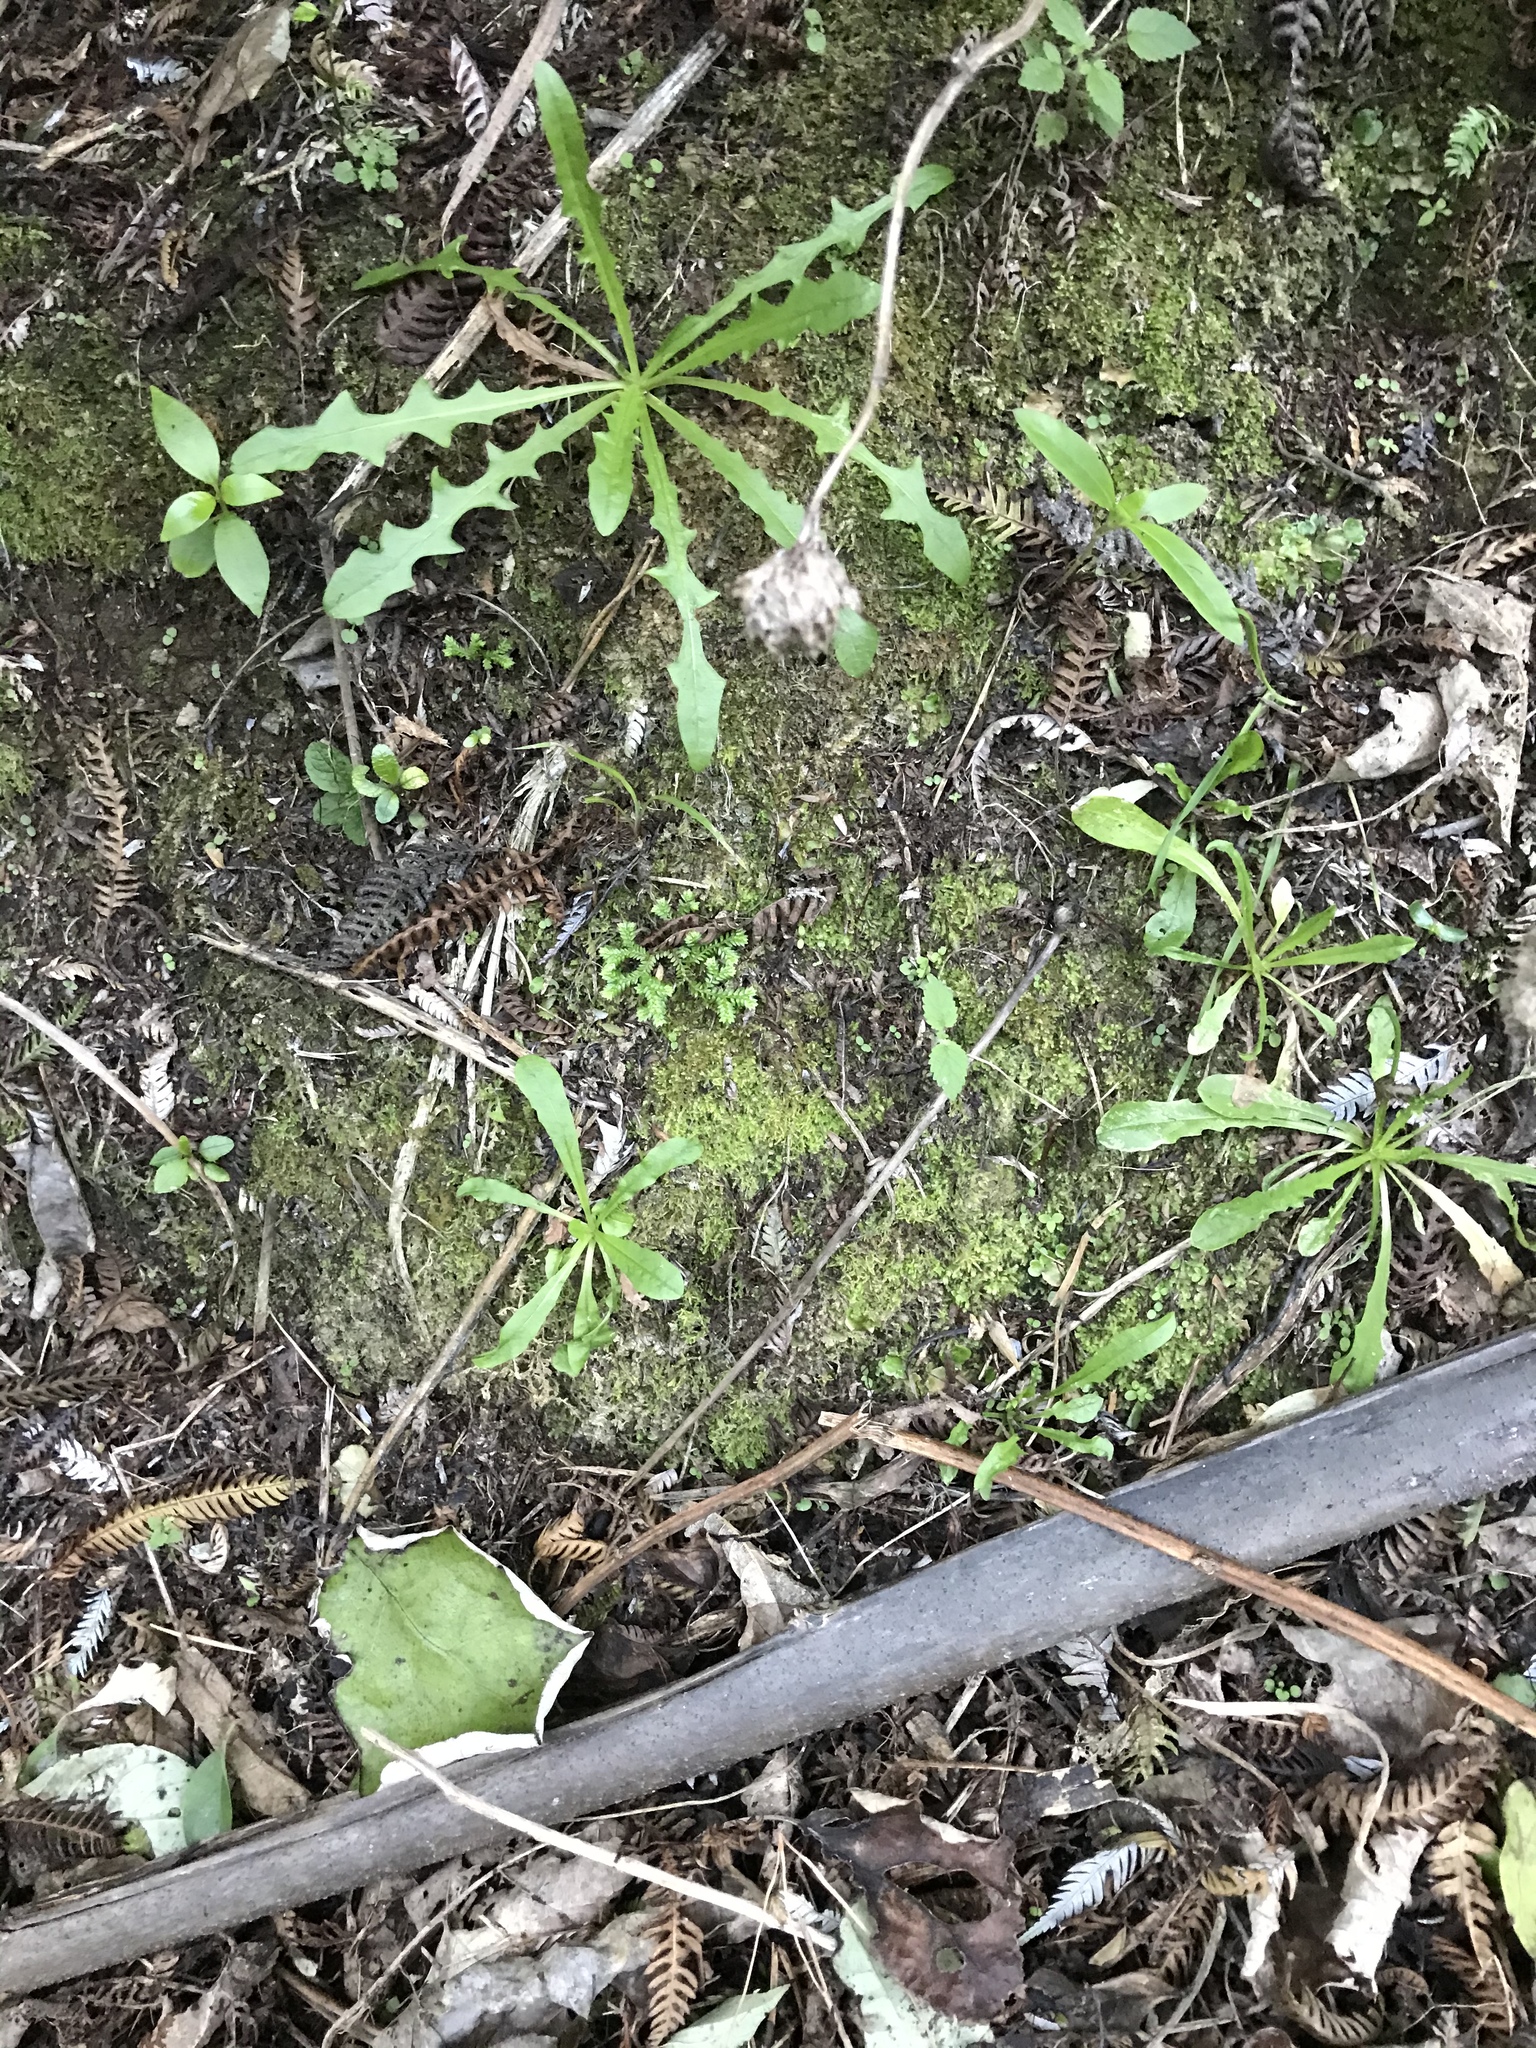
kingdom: Plantae
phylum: Tracheophyta
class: Lycopodiopsida
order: Selaginellales
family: Selaginellaceae
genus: Selaginella
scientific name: Selaginella kraussiana
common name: Krauss' spikemoss
